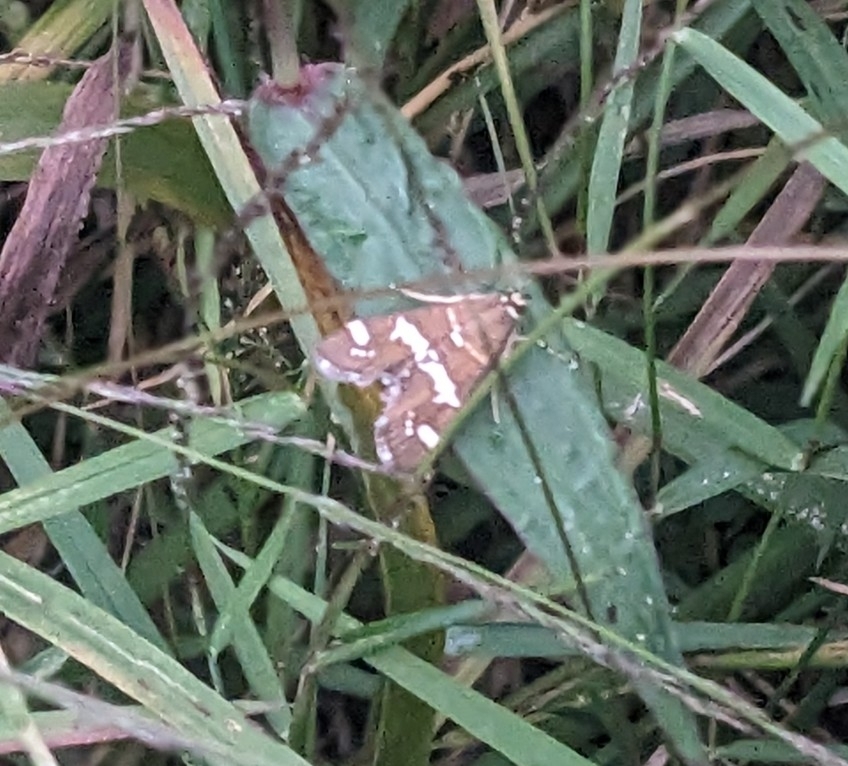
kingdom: Animalia
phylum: Arthropoda
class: Insecta
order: Lepidoptera
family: Crambidae
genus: Spoladea
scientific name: Spoladea recurvalis
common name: Beet webworm moth
